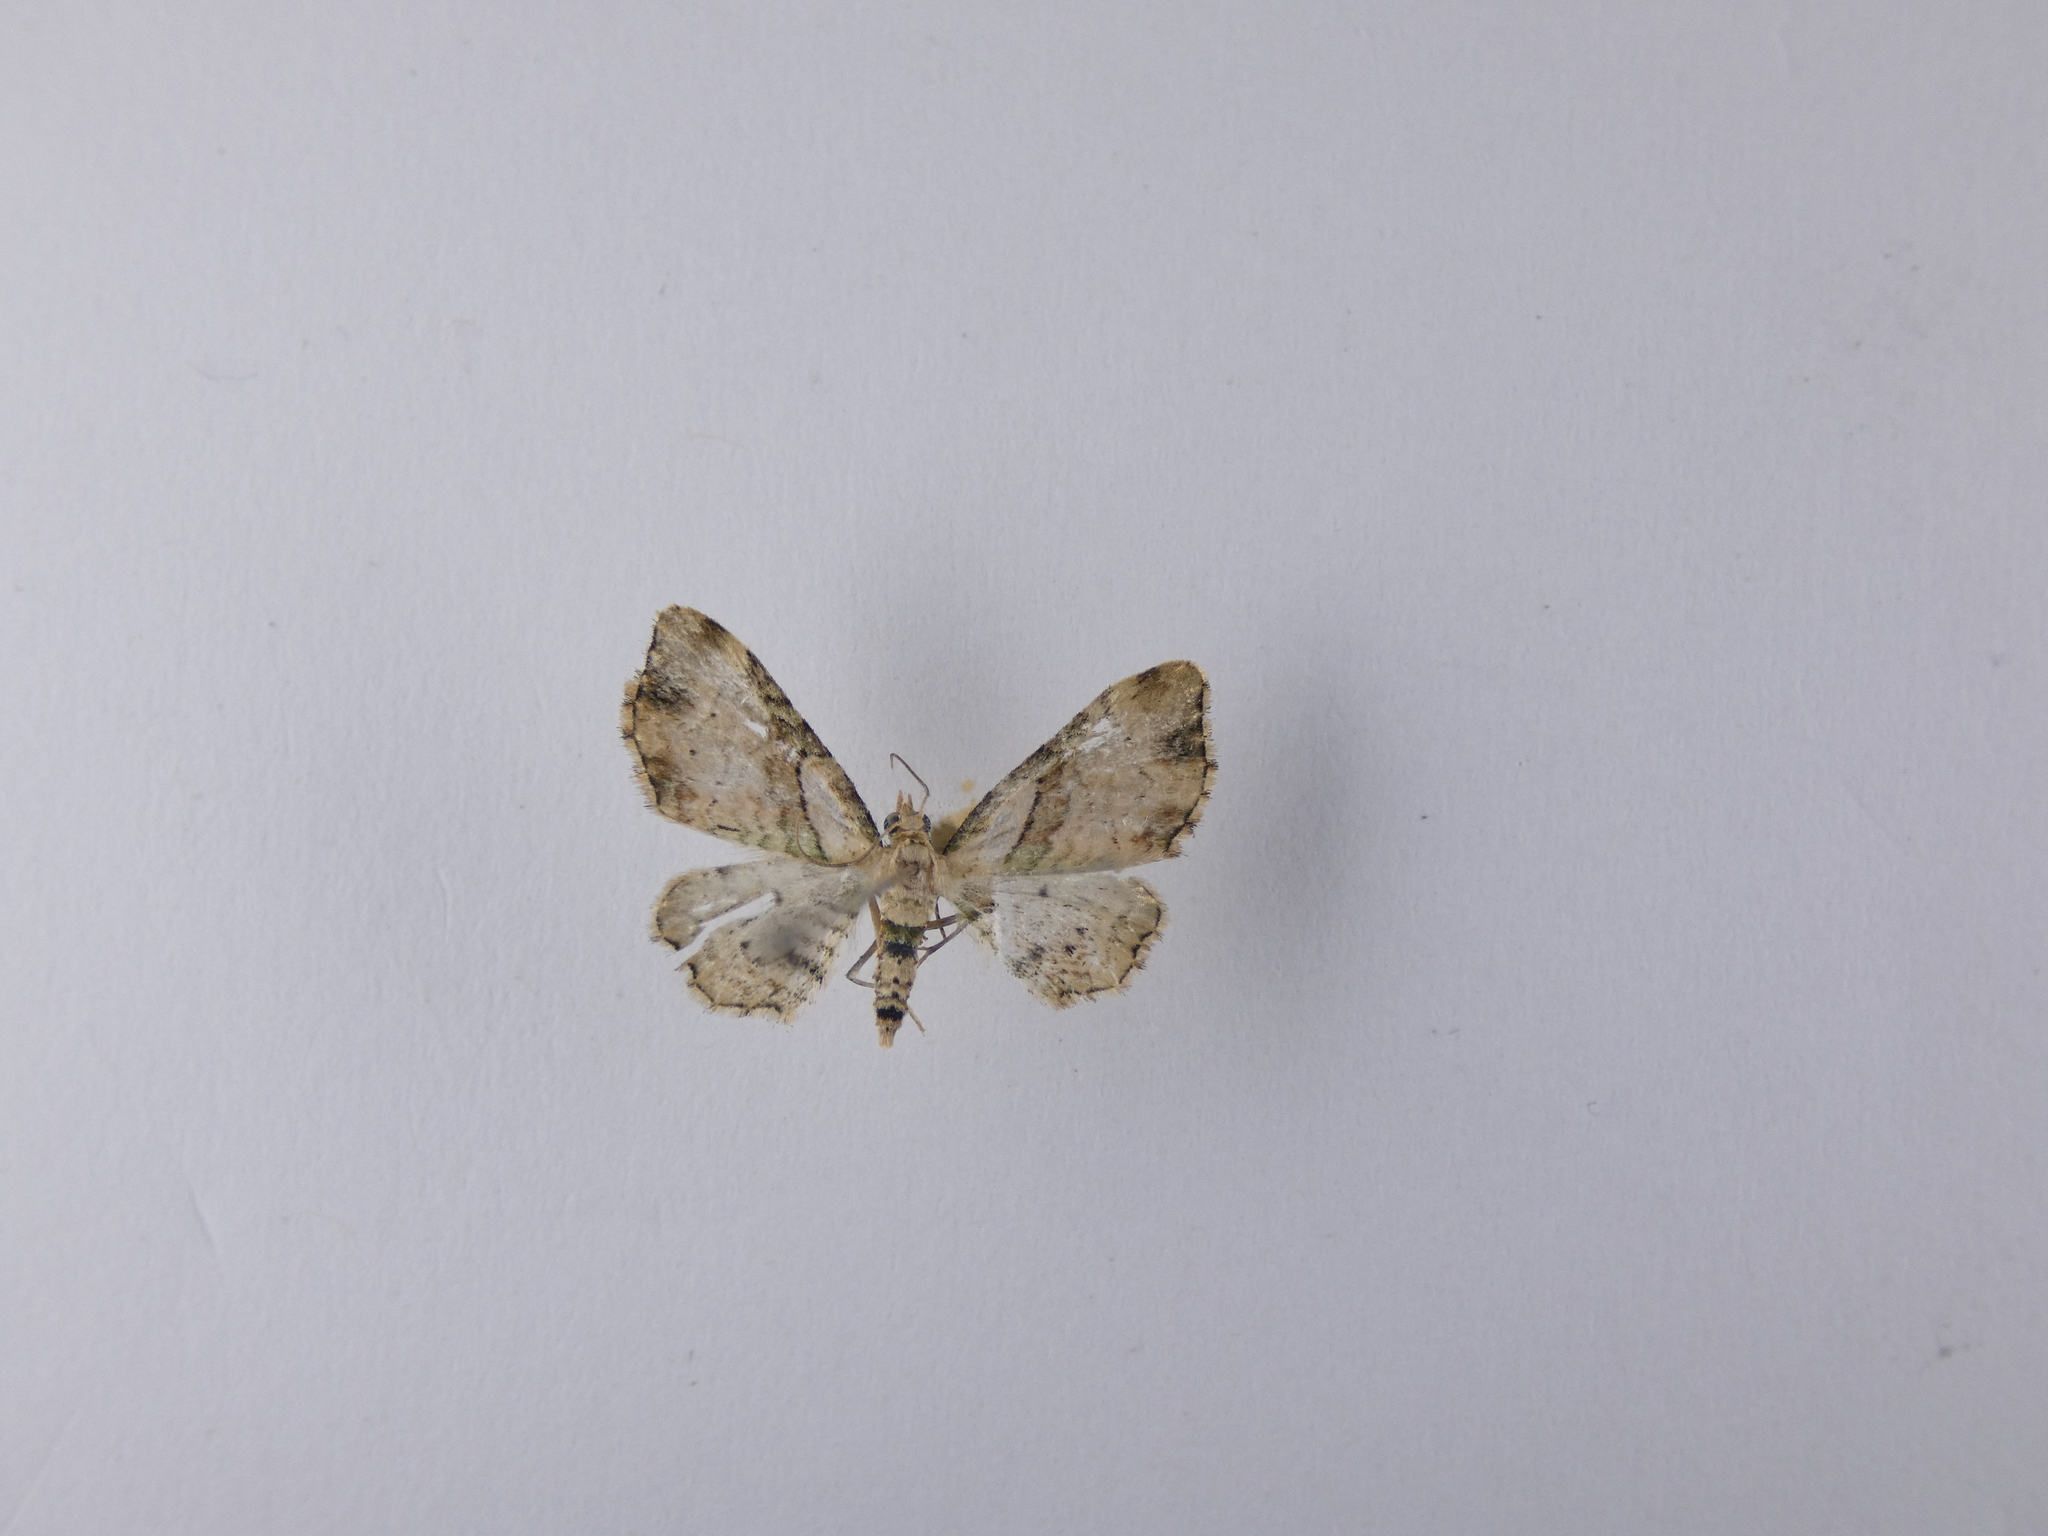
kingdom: Animalia
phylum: Arthropoda
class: Insecta
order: Lepidoptera
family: Geometridae
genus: Chloroclystis
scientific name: Chloroclystis
